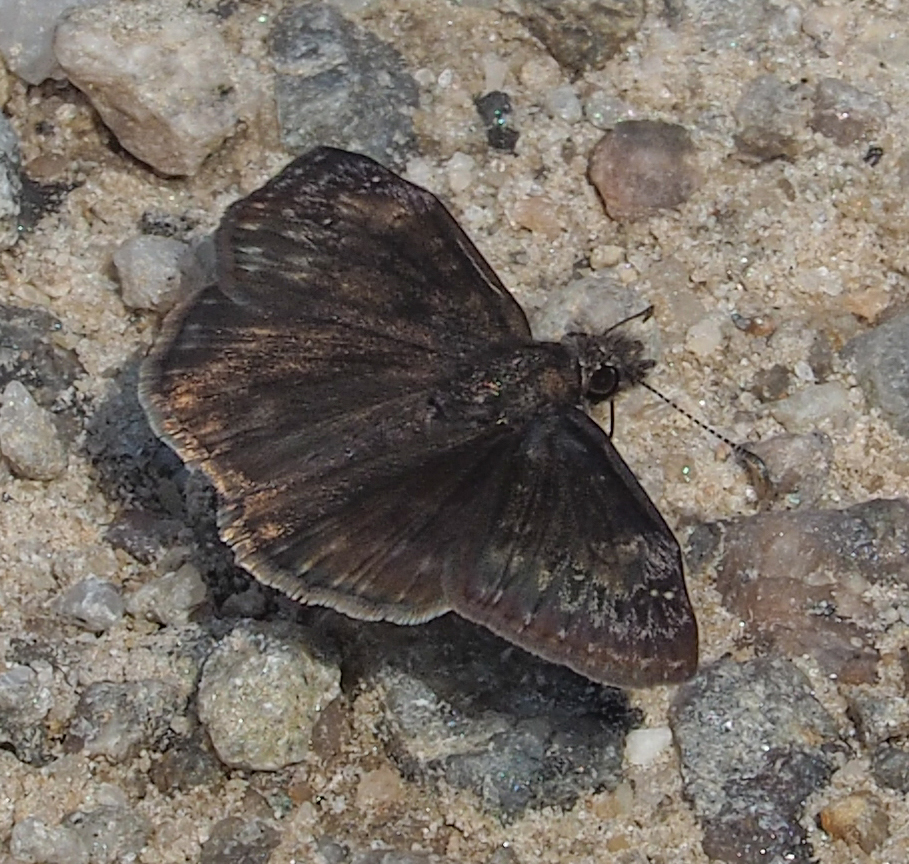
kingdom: Animalia
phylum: Arthropoda
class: Insecta
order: Lepidoptera
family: Hesperiidae
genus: Erynnis
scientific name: Erynnis baptisiae
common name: Wild indigo duskywing
